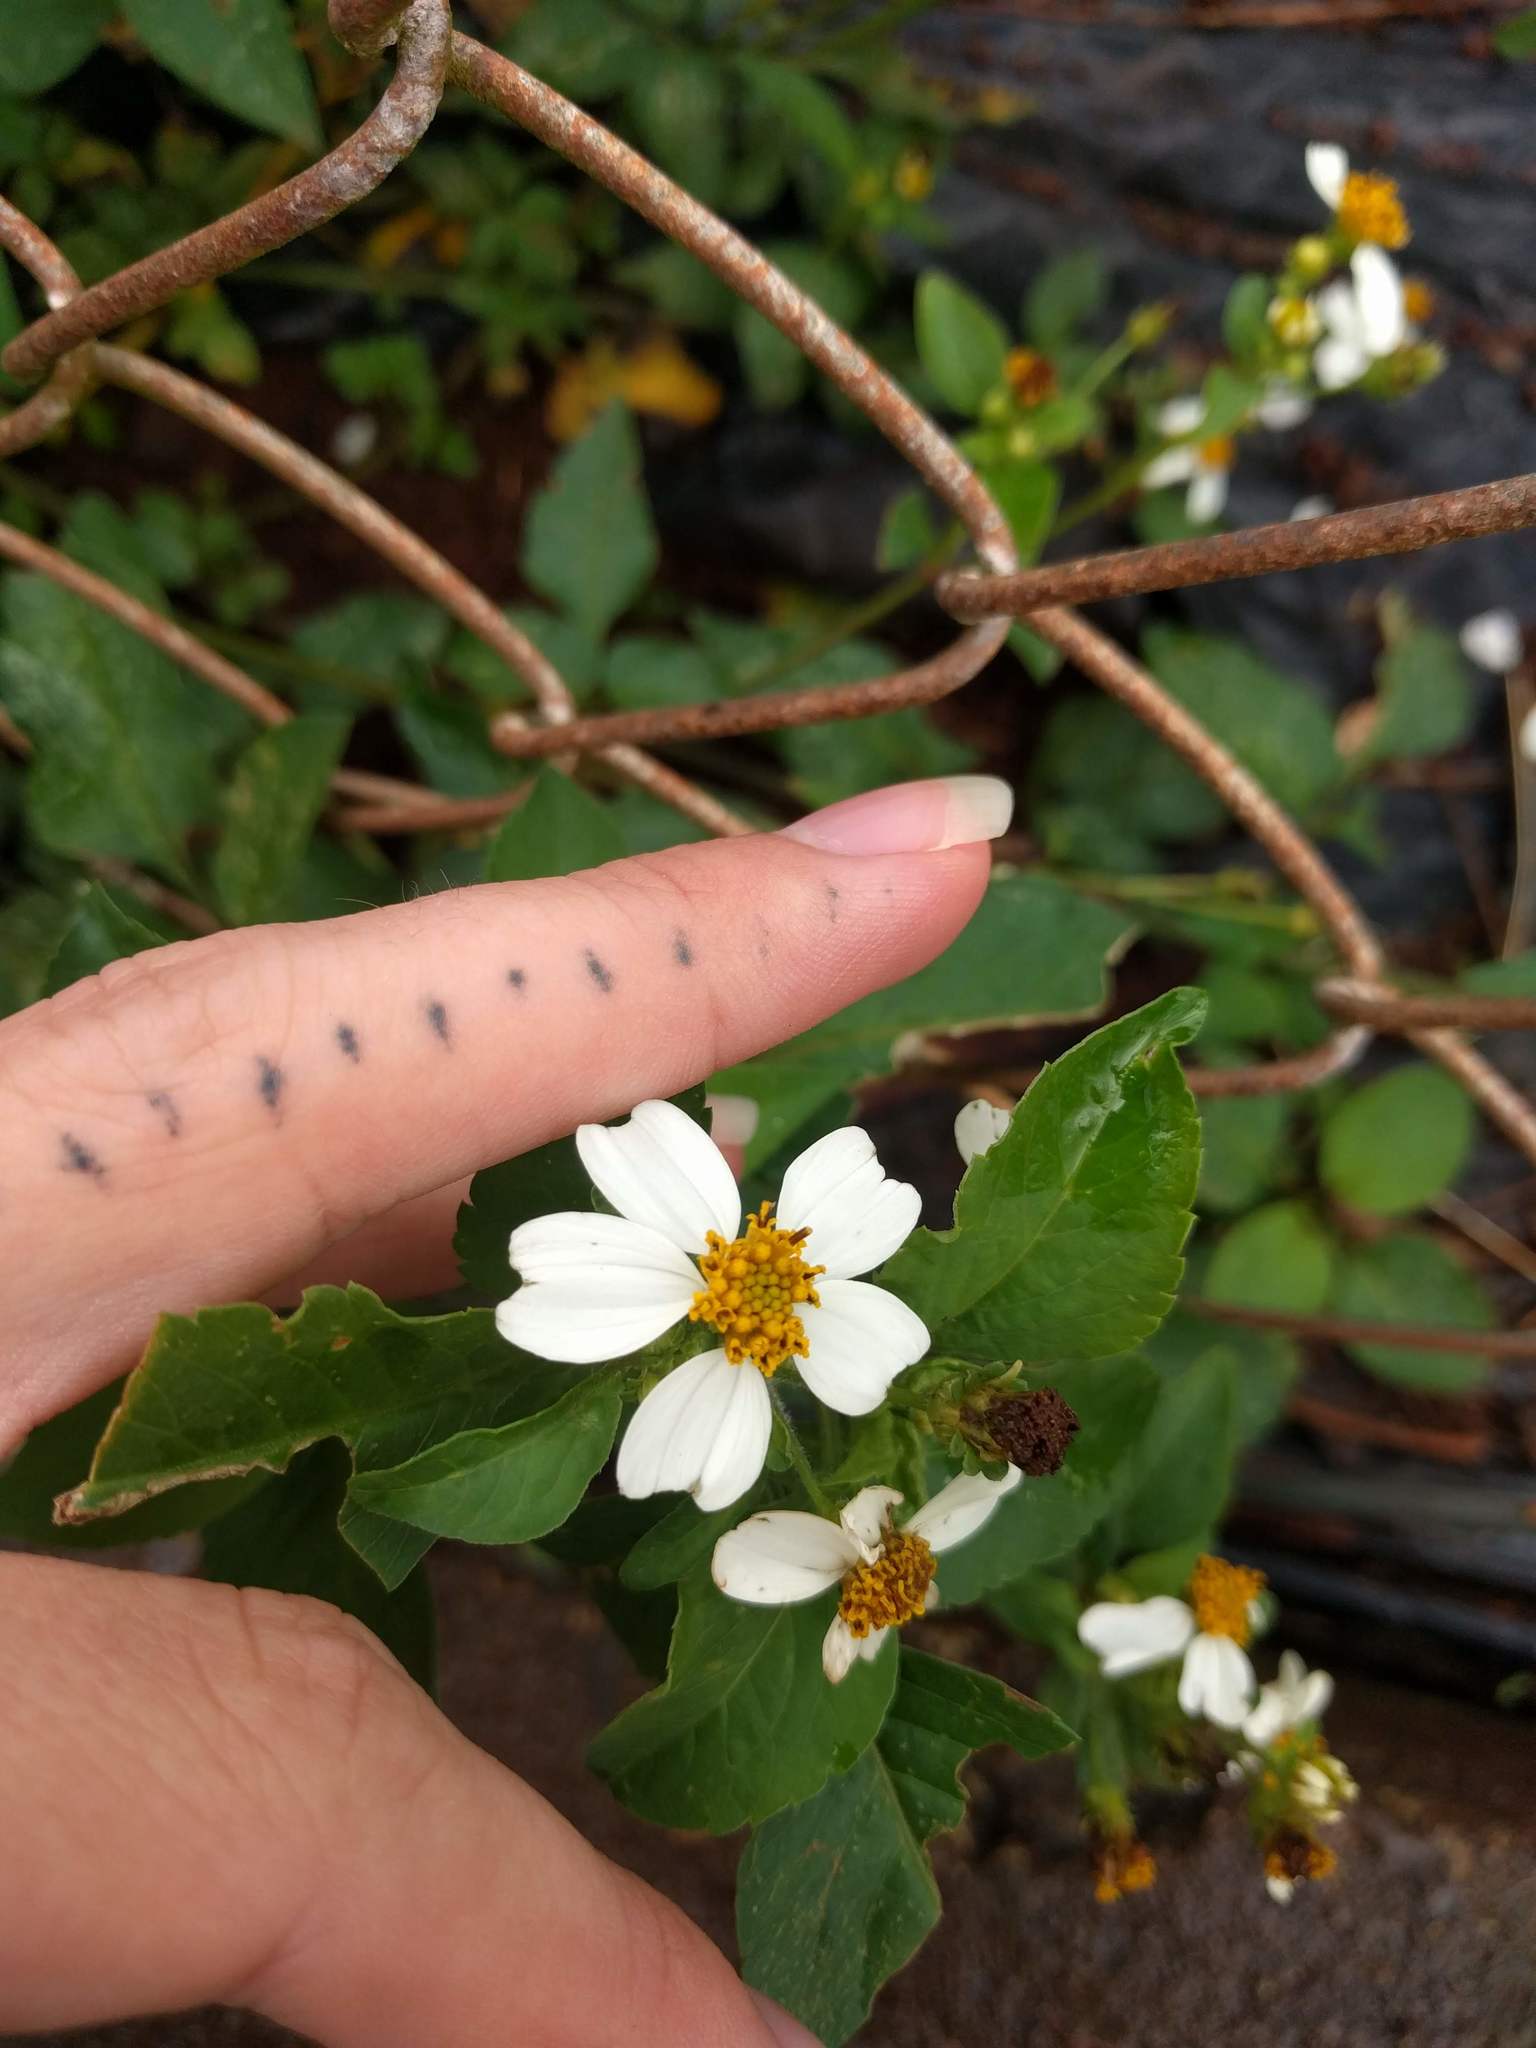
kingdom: Plantae
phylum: Tracheophyta
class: Magnoliopsida
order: Asterales
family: Asteraceae
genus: Bidens
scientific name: Bidens alba
